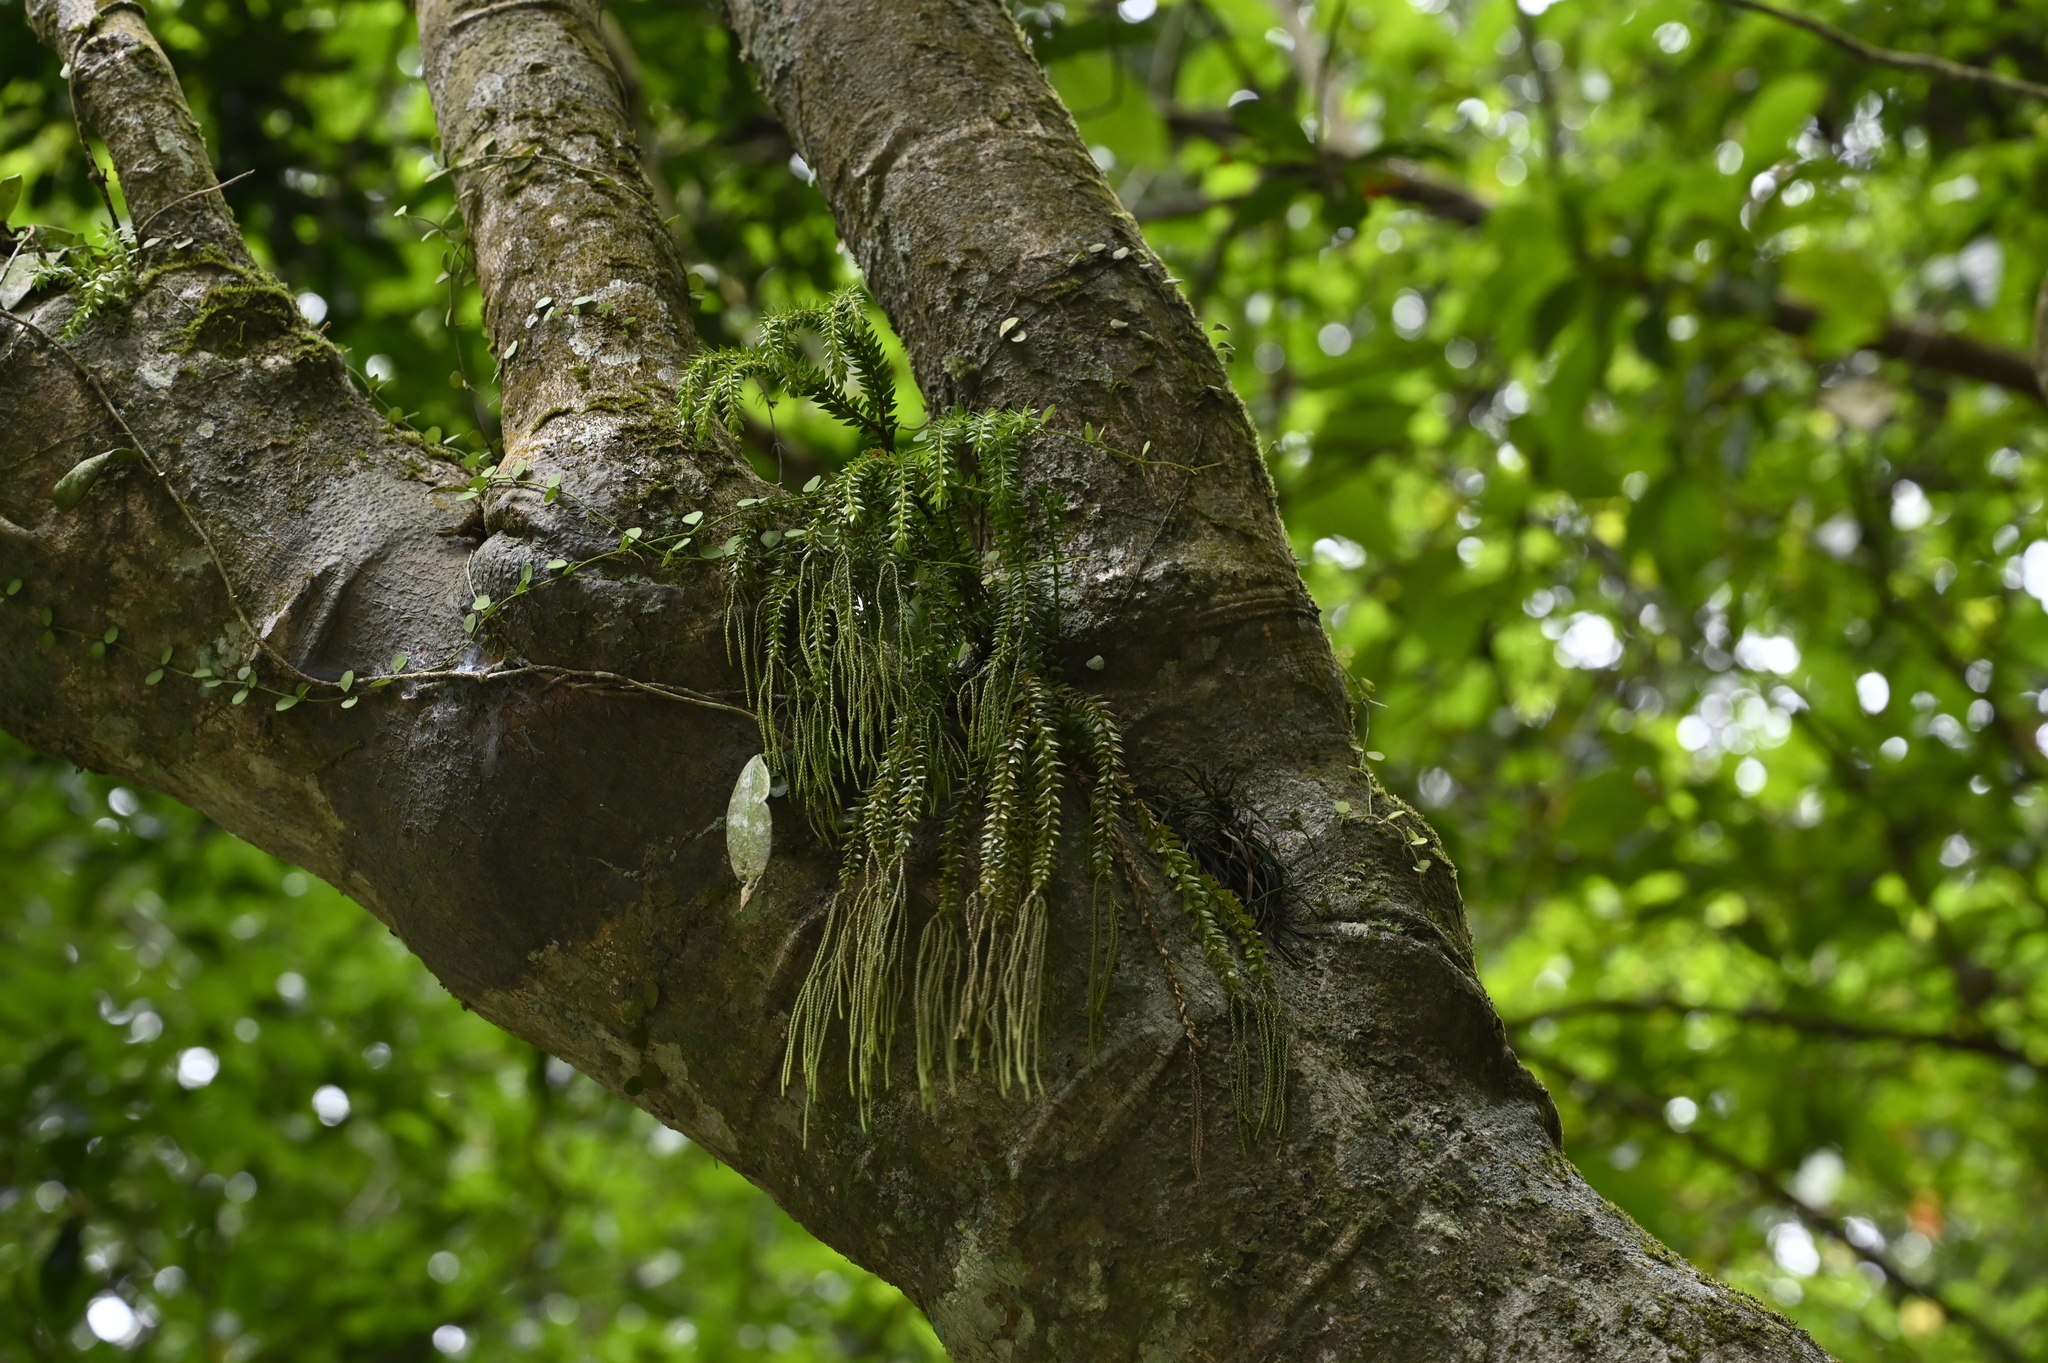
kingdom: Plantae
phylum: Tracheophyta
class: Lycopodiopsida
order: Lycopodiales
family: Lycopodiaceae
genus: Phlegmariurus
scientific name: Phlegmariurus phlegmaria
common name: Coarse tassel-fern
